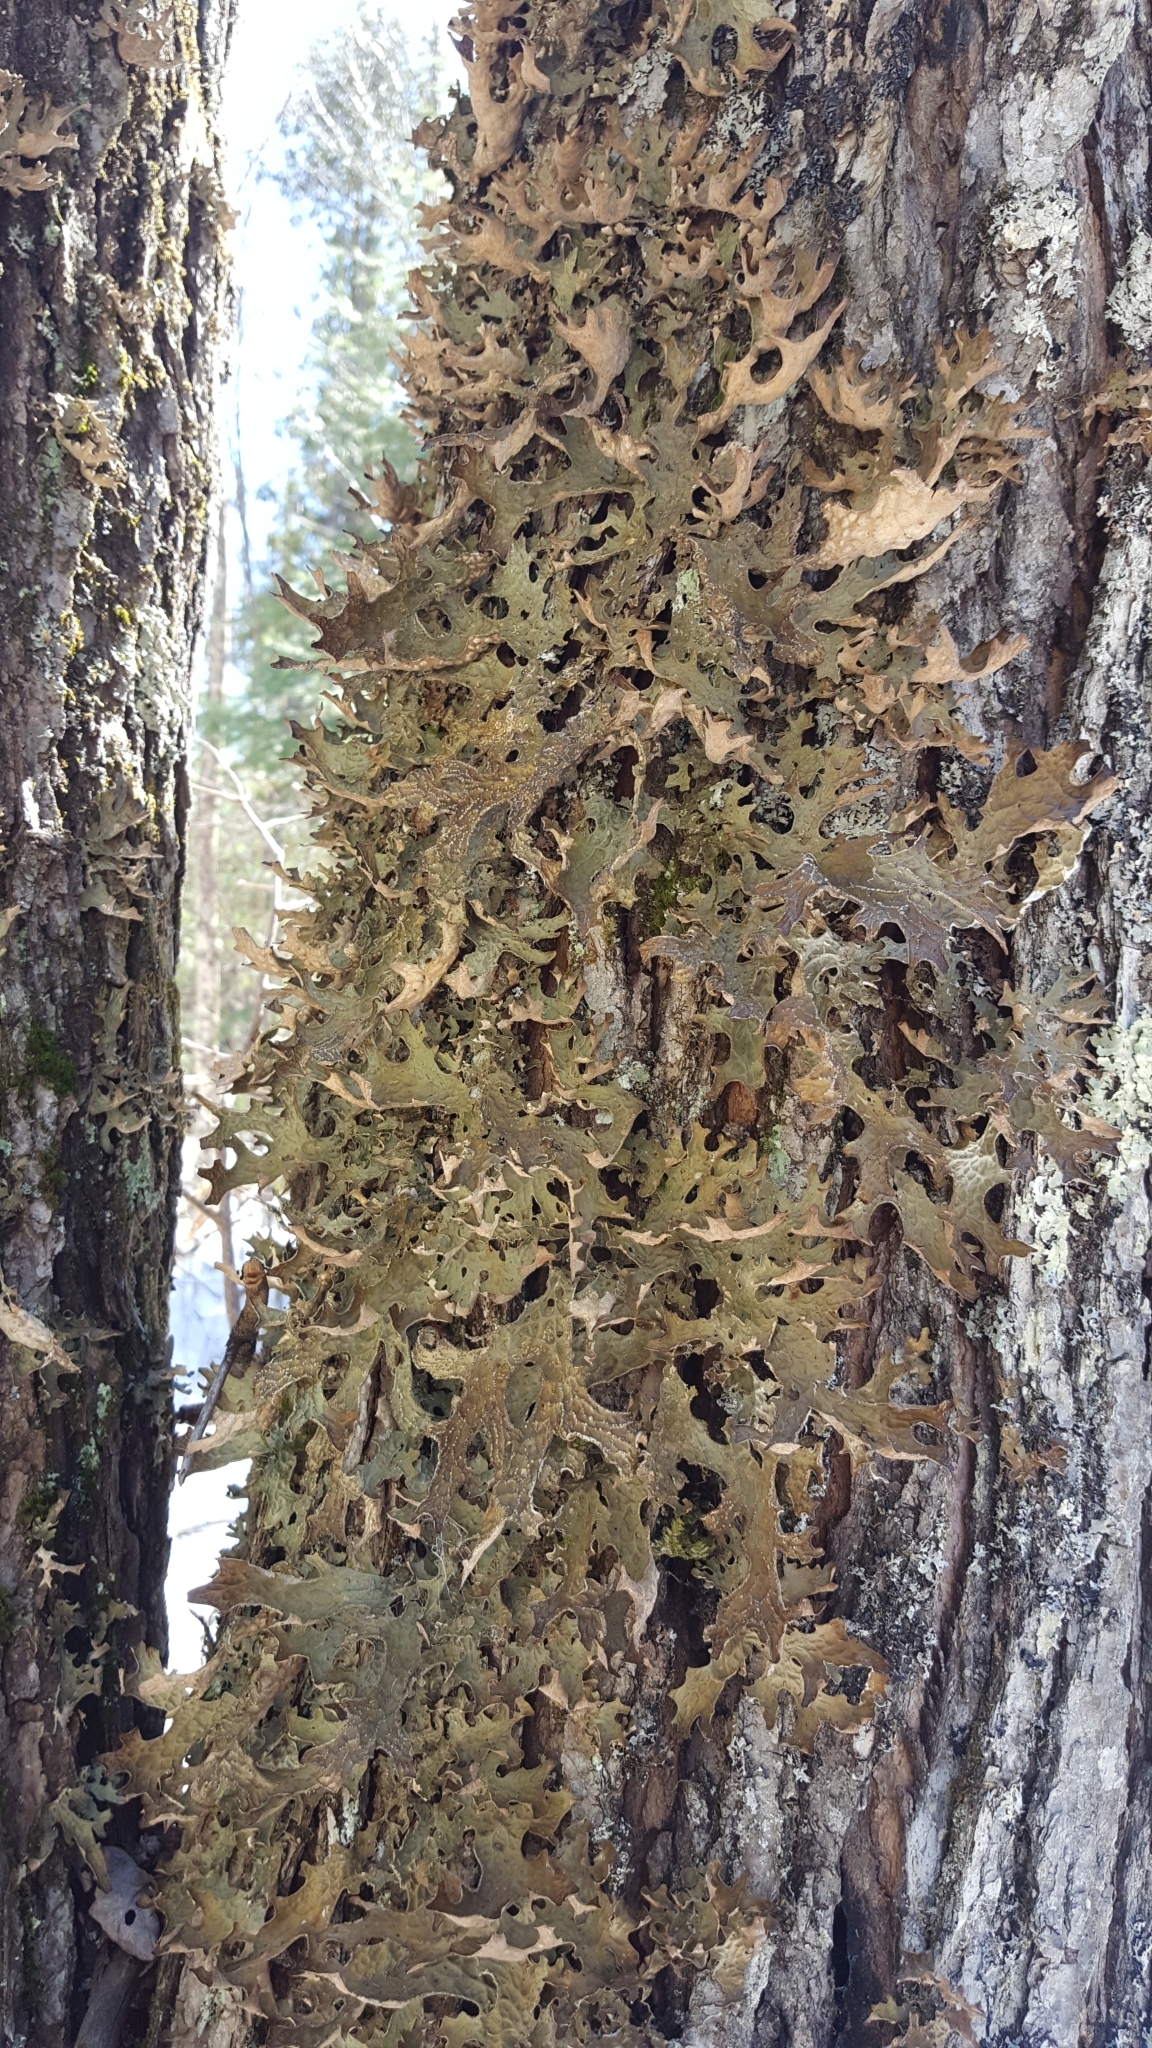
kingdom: Fungi
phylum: Ascomycota
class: Lecanoromycetes
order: Peltigerales
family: Lobariaceae
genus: Lobaria
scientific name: Lobaria pulmonaria
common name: Lungwort
